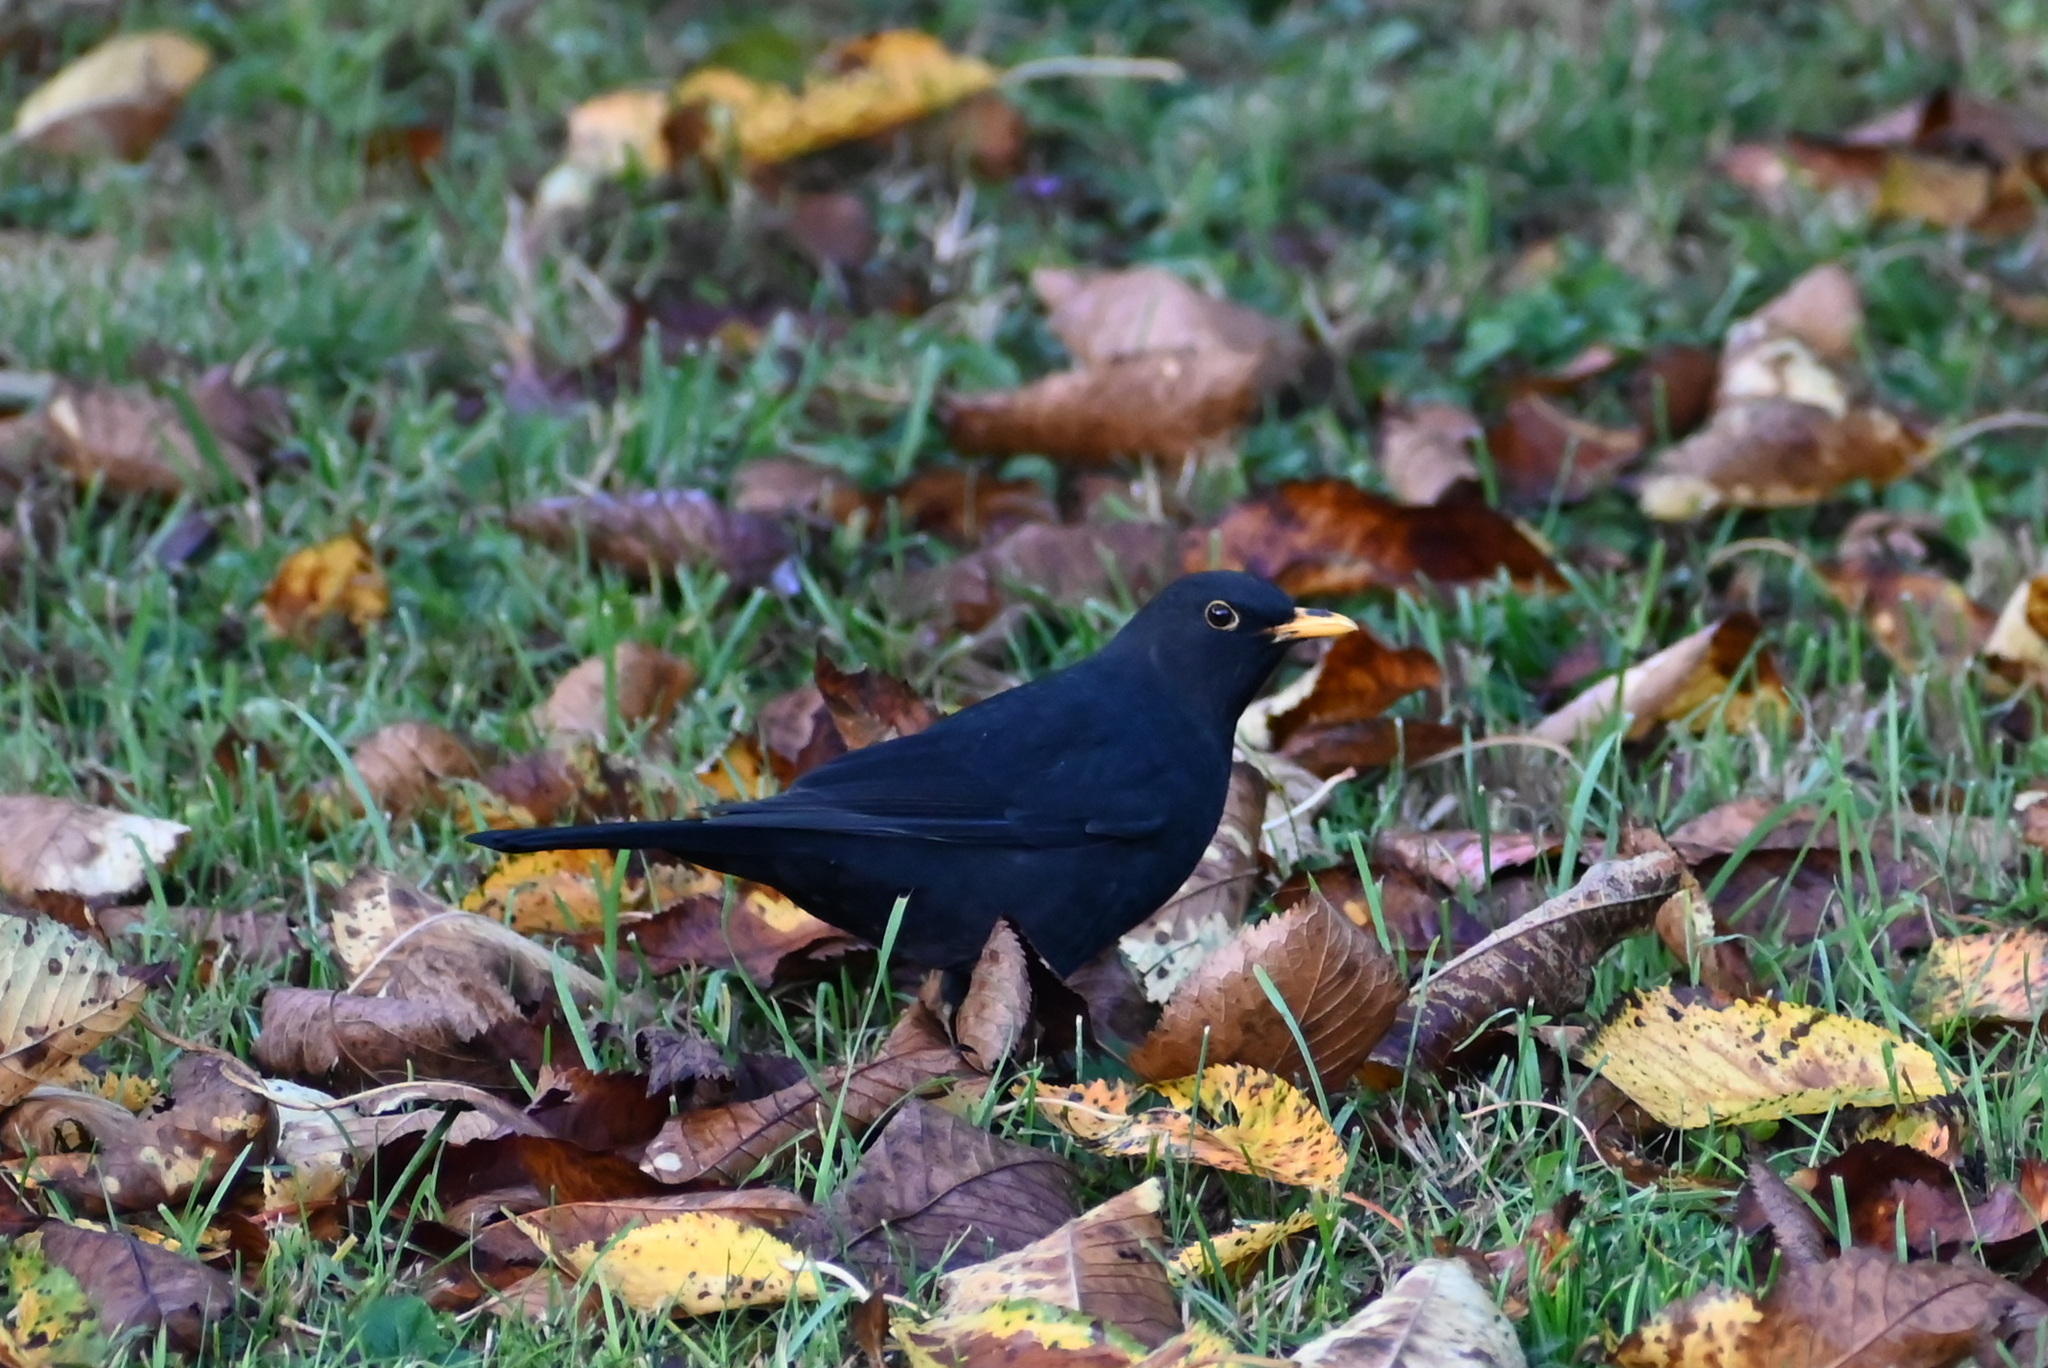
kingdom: Animalia
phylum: Chordata
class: Aves
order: Passeriformes
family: Turdidae
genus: Turdus
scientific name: Turdus merula
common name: Common blackbird
